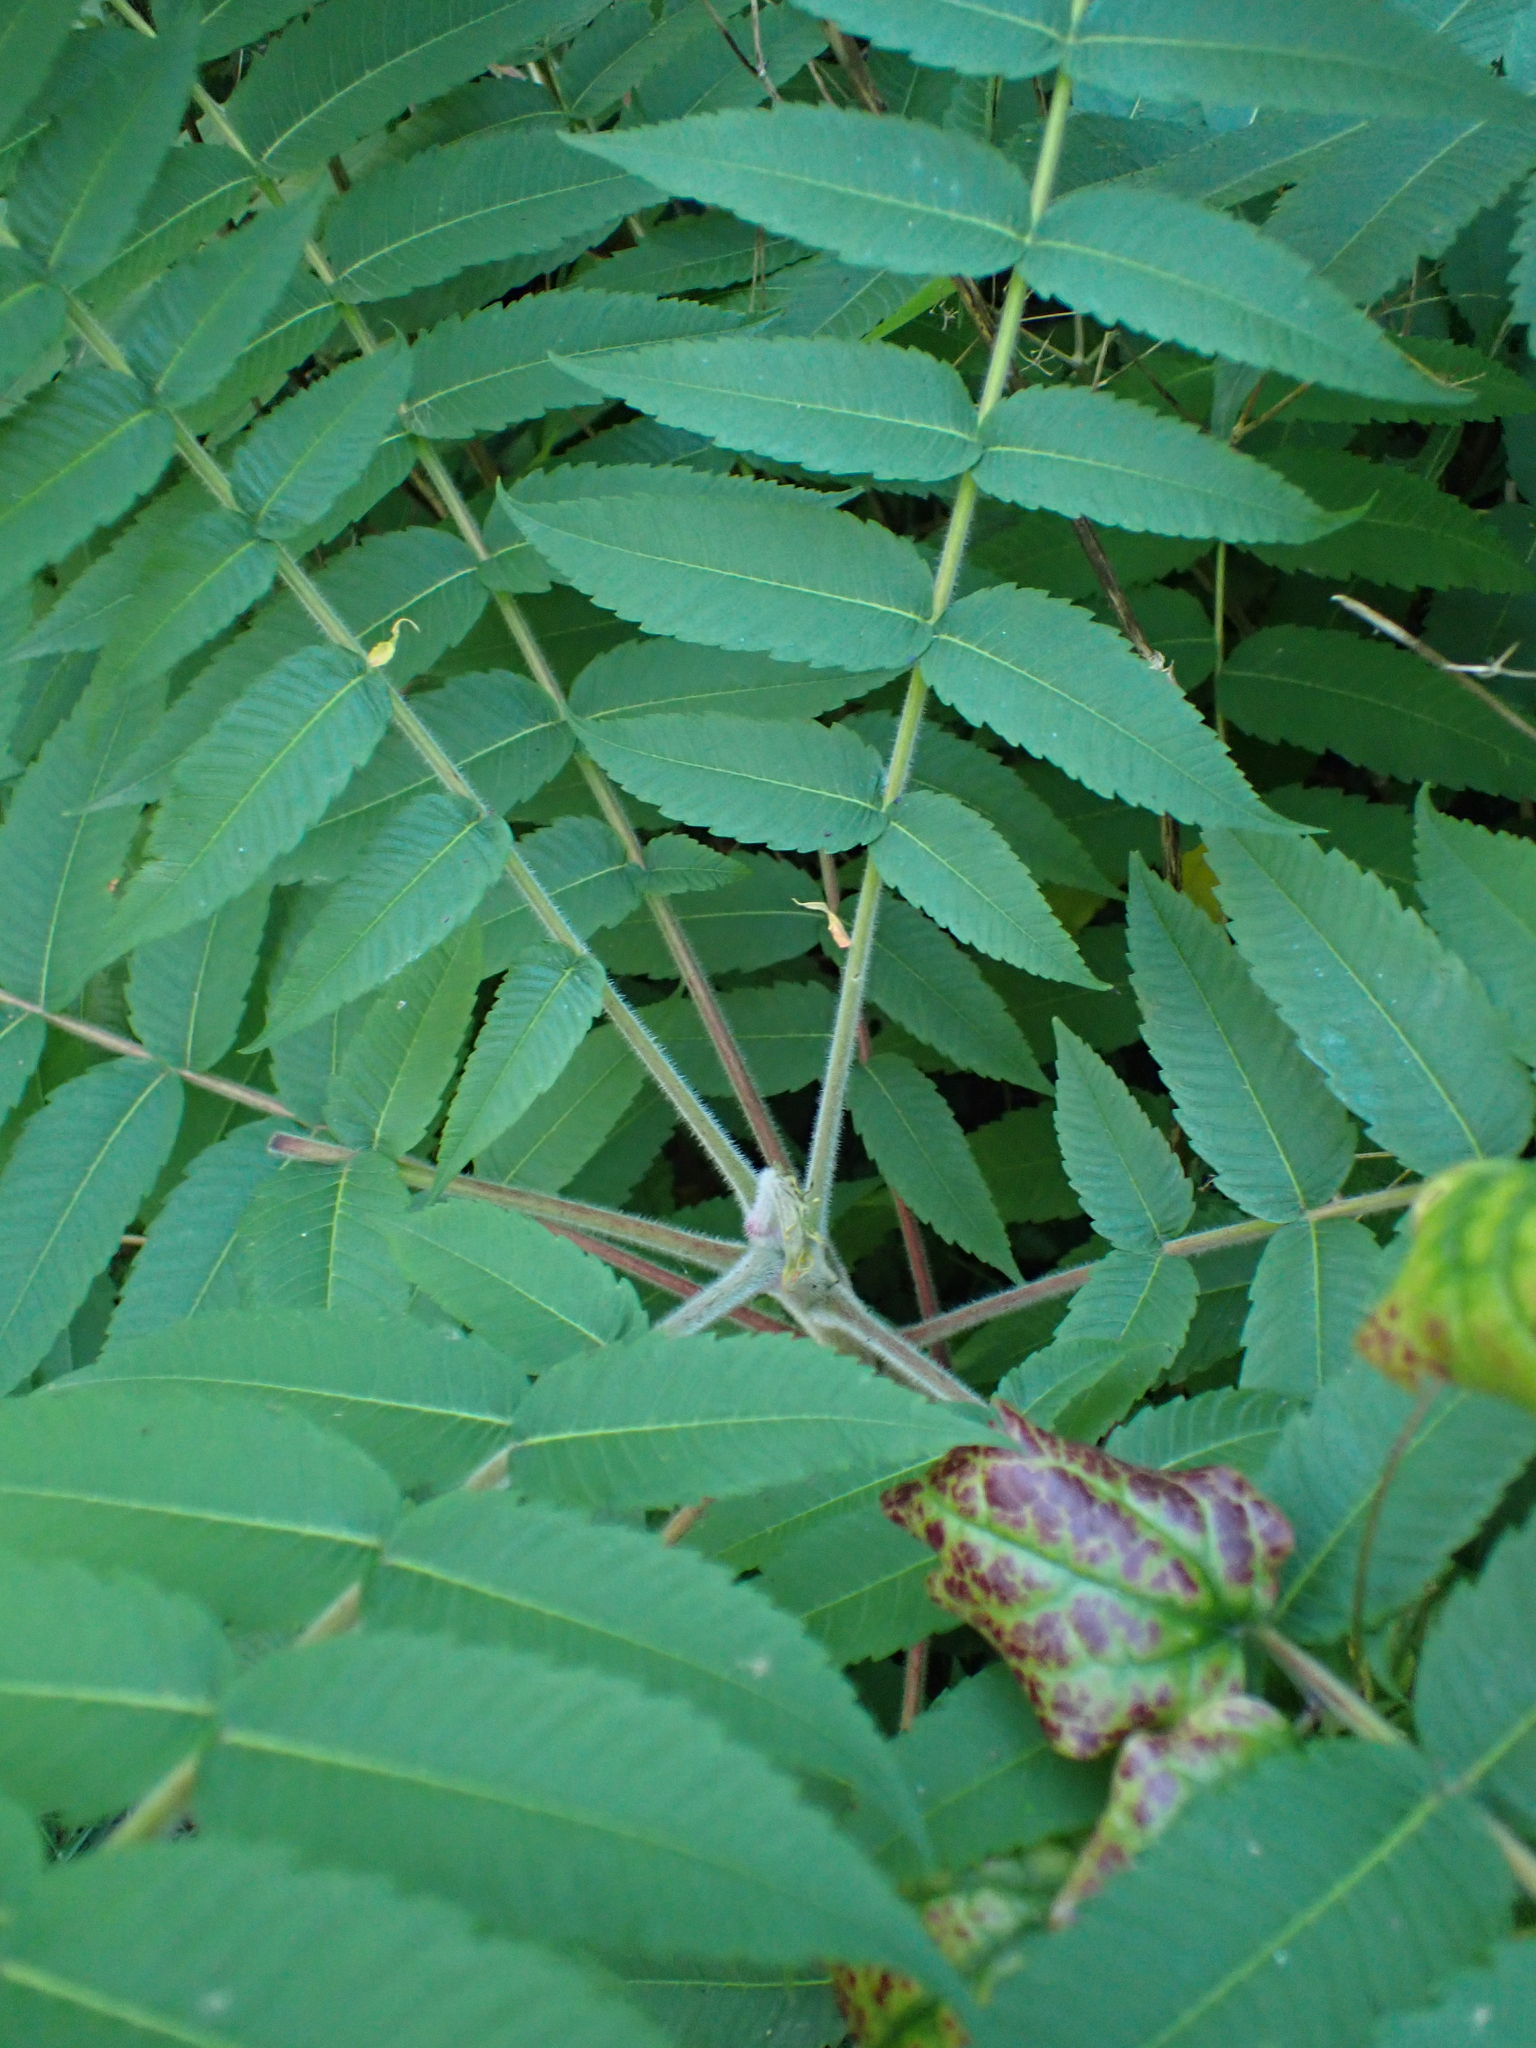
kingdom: Plantae
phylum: Tracheophyta
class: Magnoliopsida
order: Sapindales
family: Anacardiaceae
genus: Rhus
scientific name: Rhus typhina
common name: Staghorn sumac
